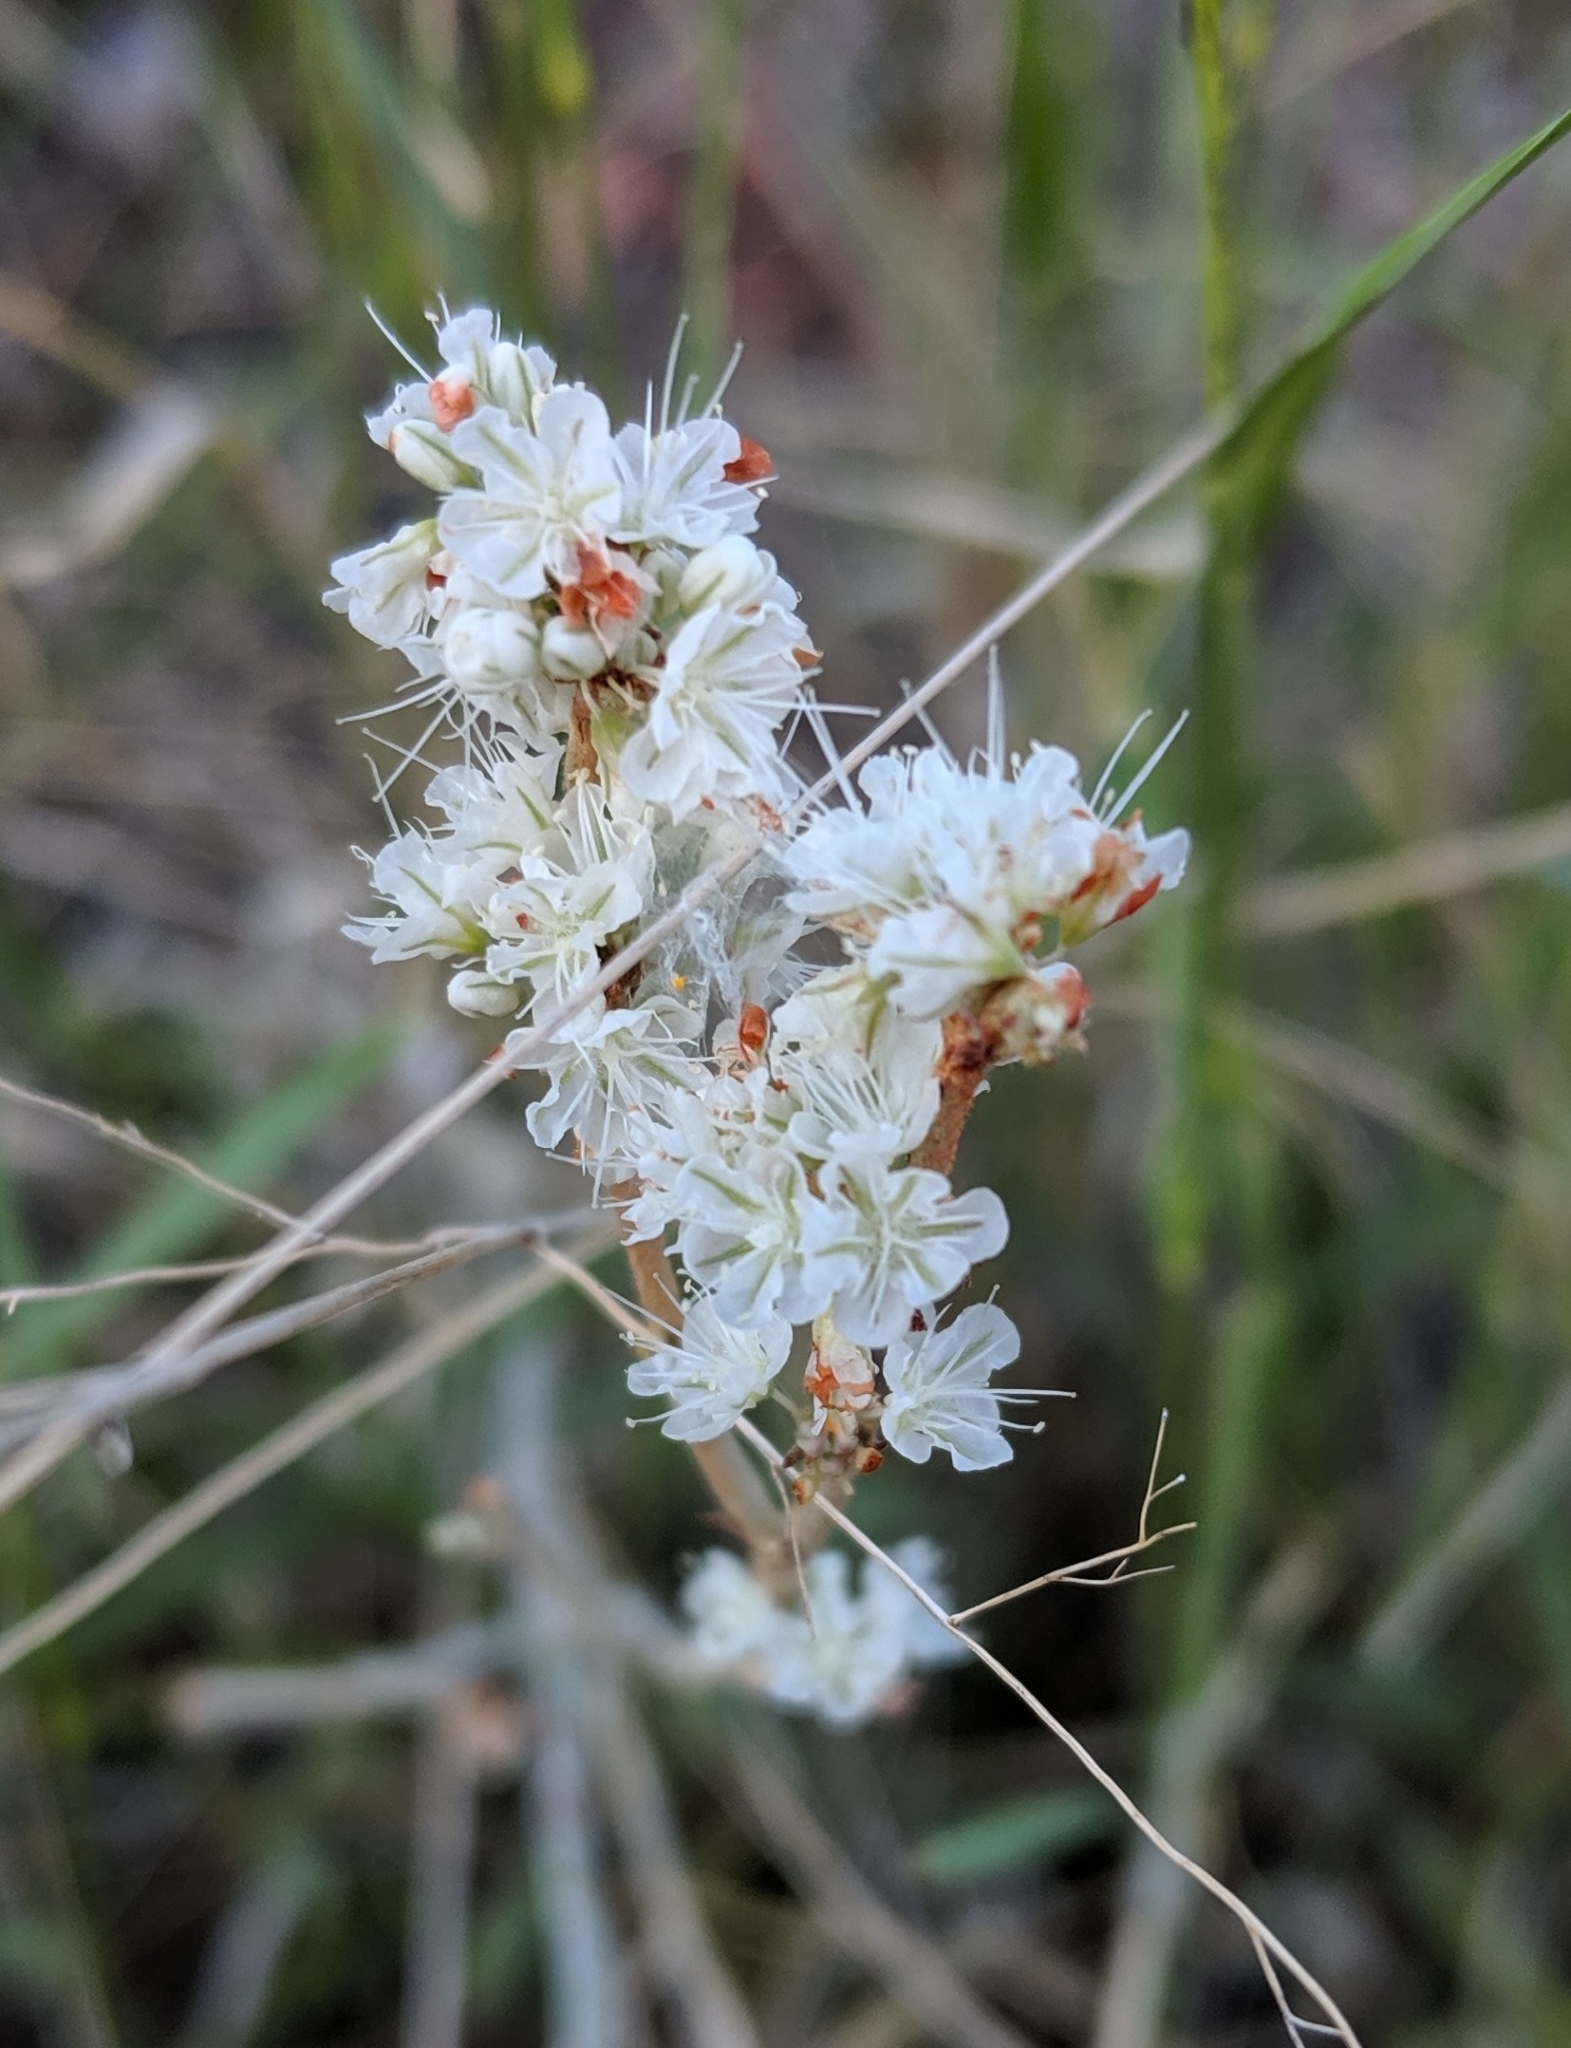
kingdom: Plantae
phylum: Tracheophyta
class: Magnoliopsida
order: Caryophyllales
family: Polygonaceae
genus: Eriogonum
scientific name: Eriogonum wrightii
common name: Bastard-sage
